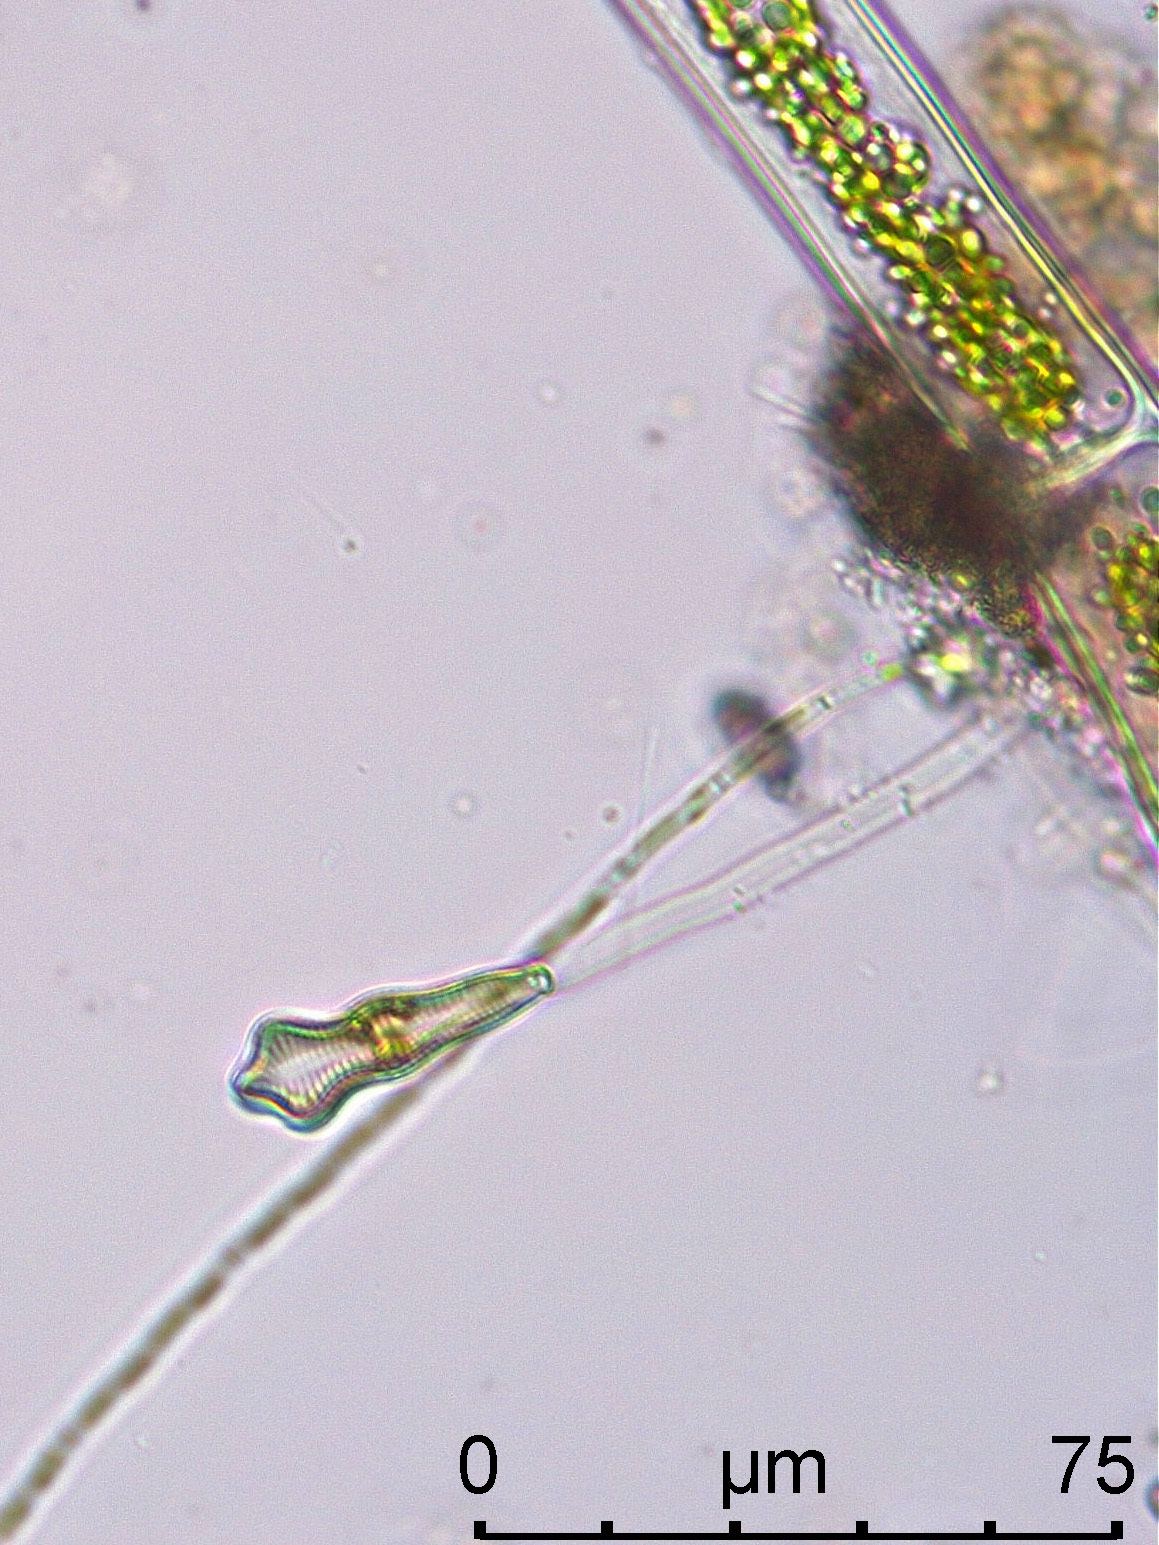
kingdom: Chromista
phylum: Ochrophyta
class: Bacillariophyceae
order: Cymbellales
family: Gomphonemataceae
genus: Gomphonema
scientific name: Gomphonema acuminatum
